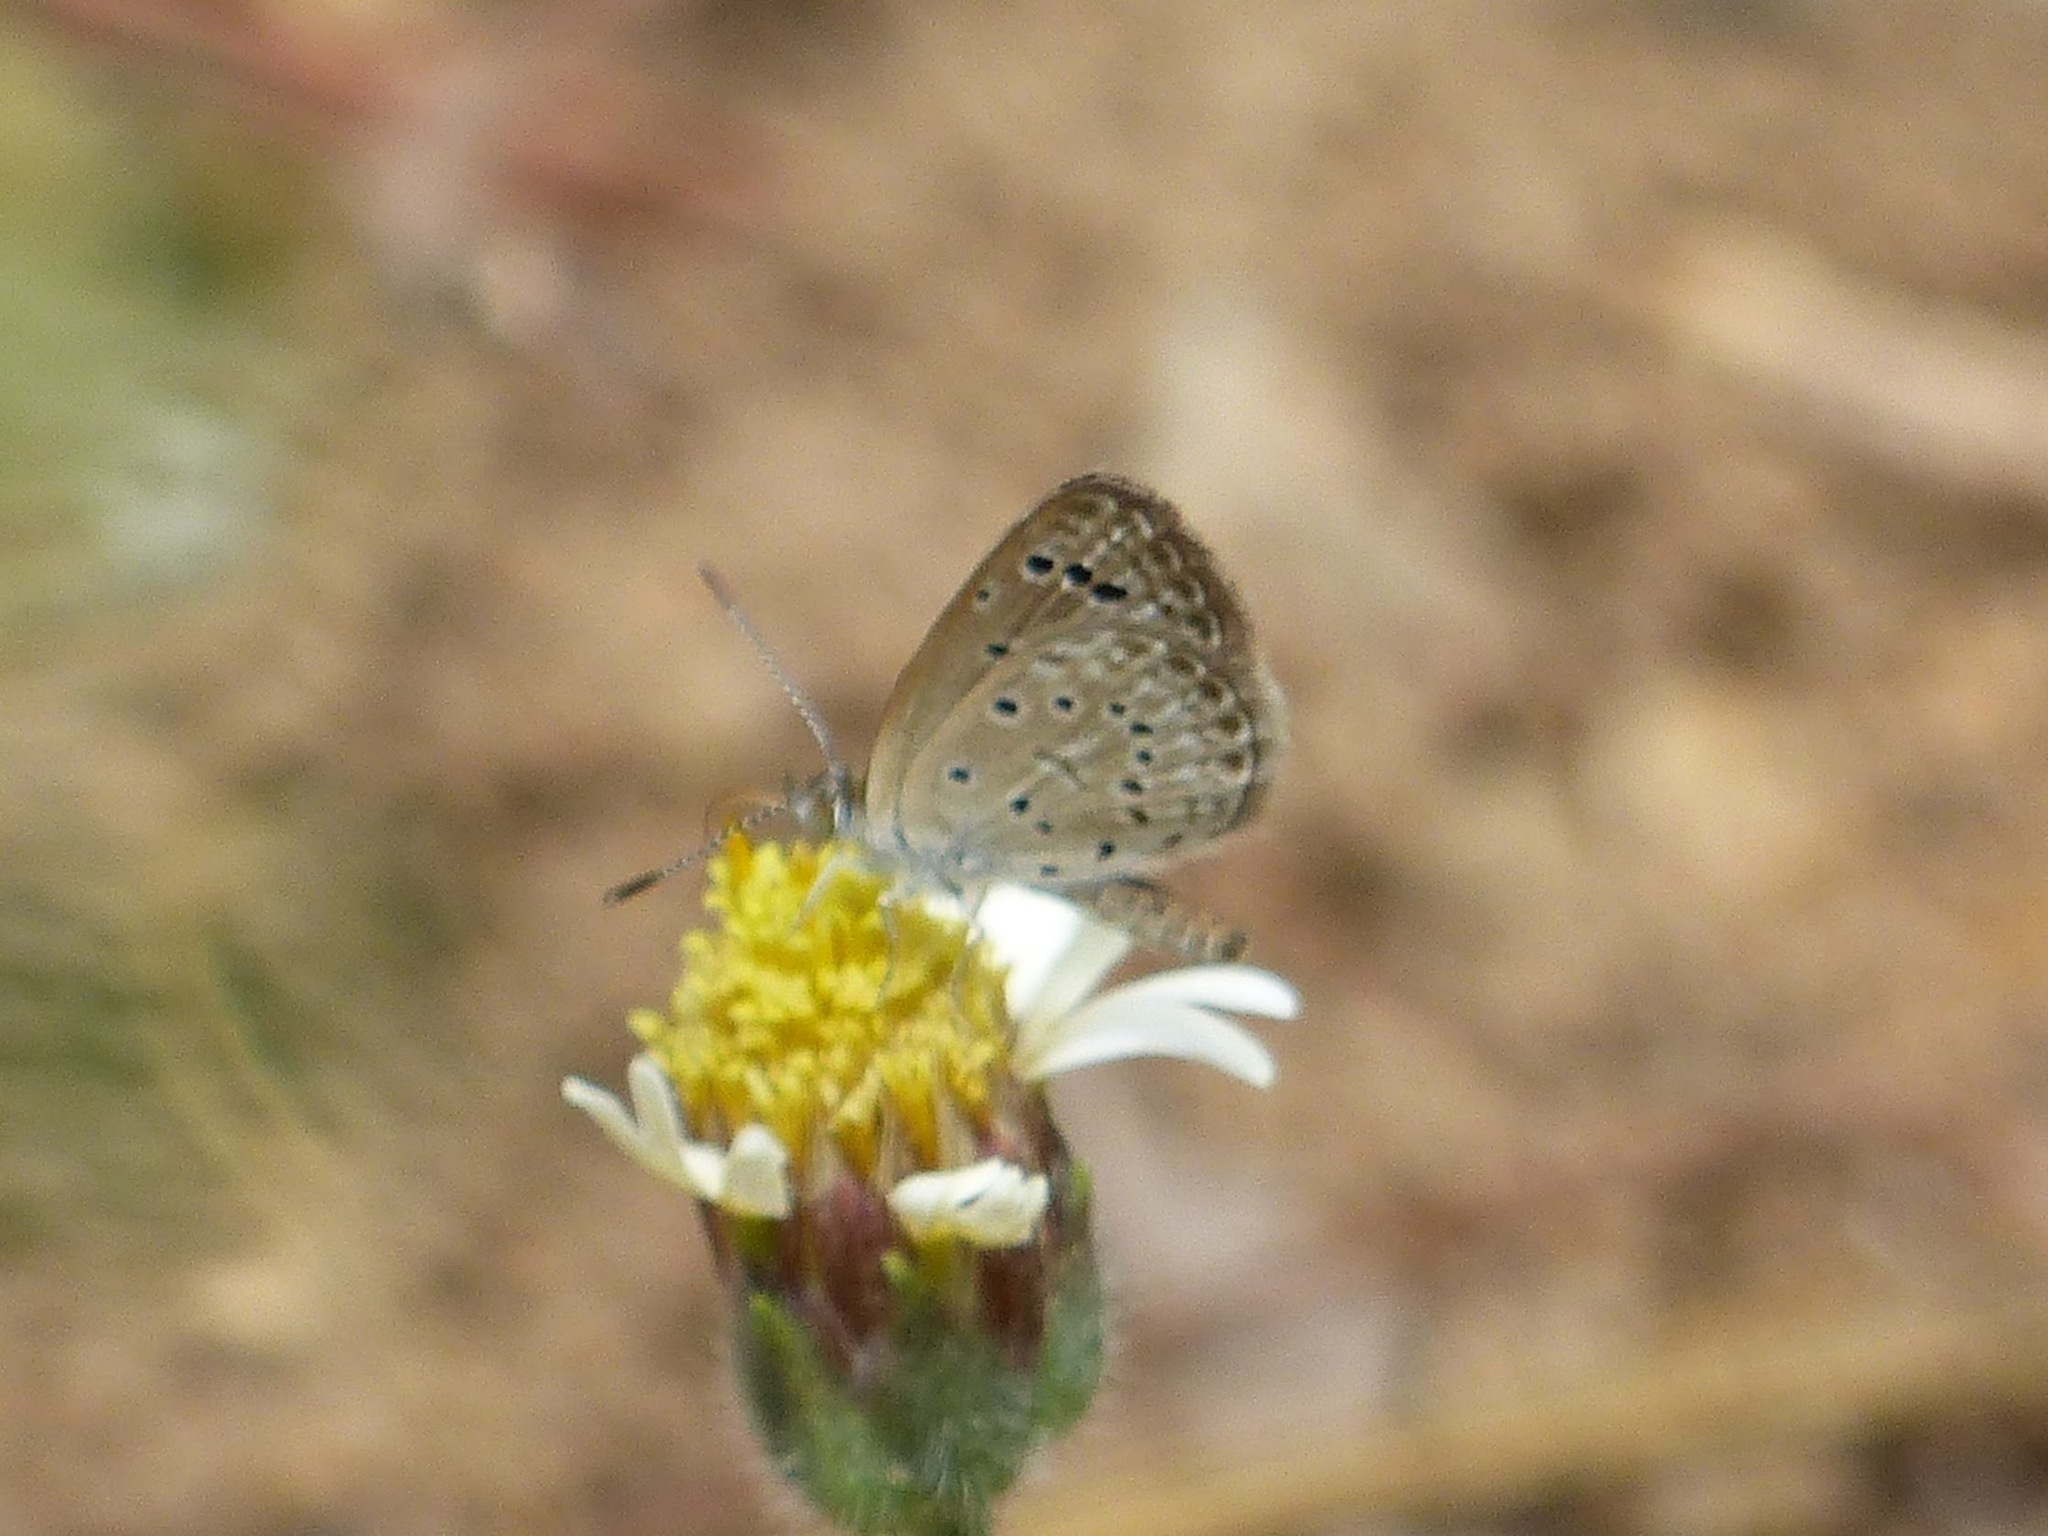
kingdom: Animalia
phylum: Arthropoda
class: Insecta
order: Lepidoptera
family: Lycaenidae
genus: Zizeeria
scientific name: Zizeeria karsandra
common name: Dark grass blue
